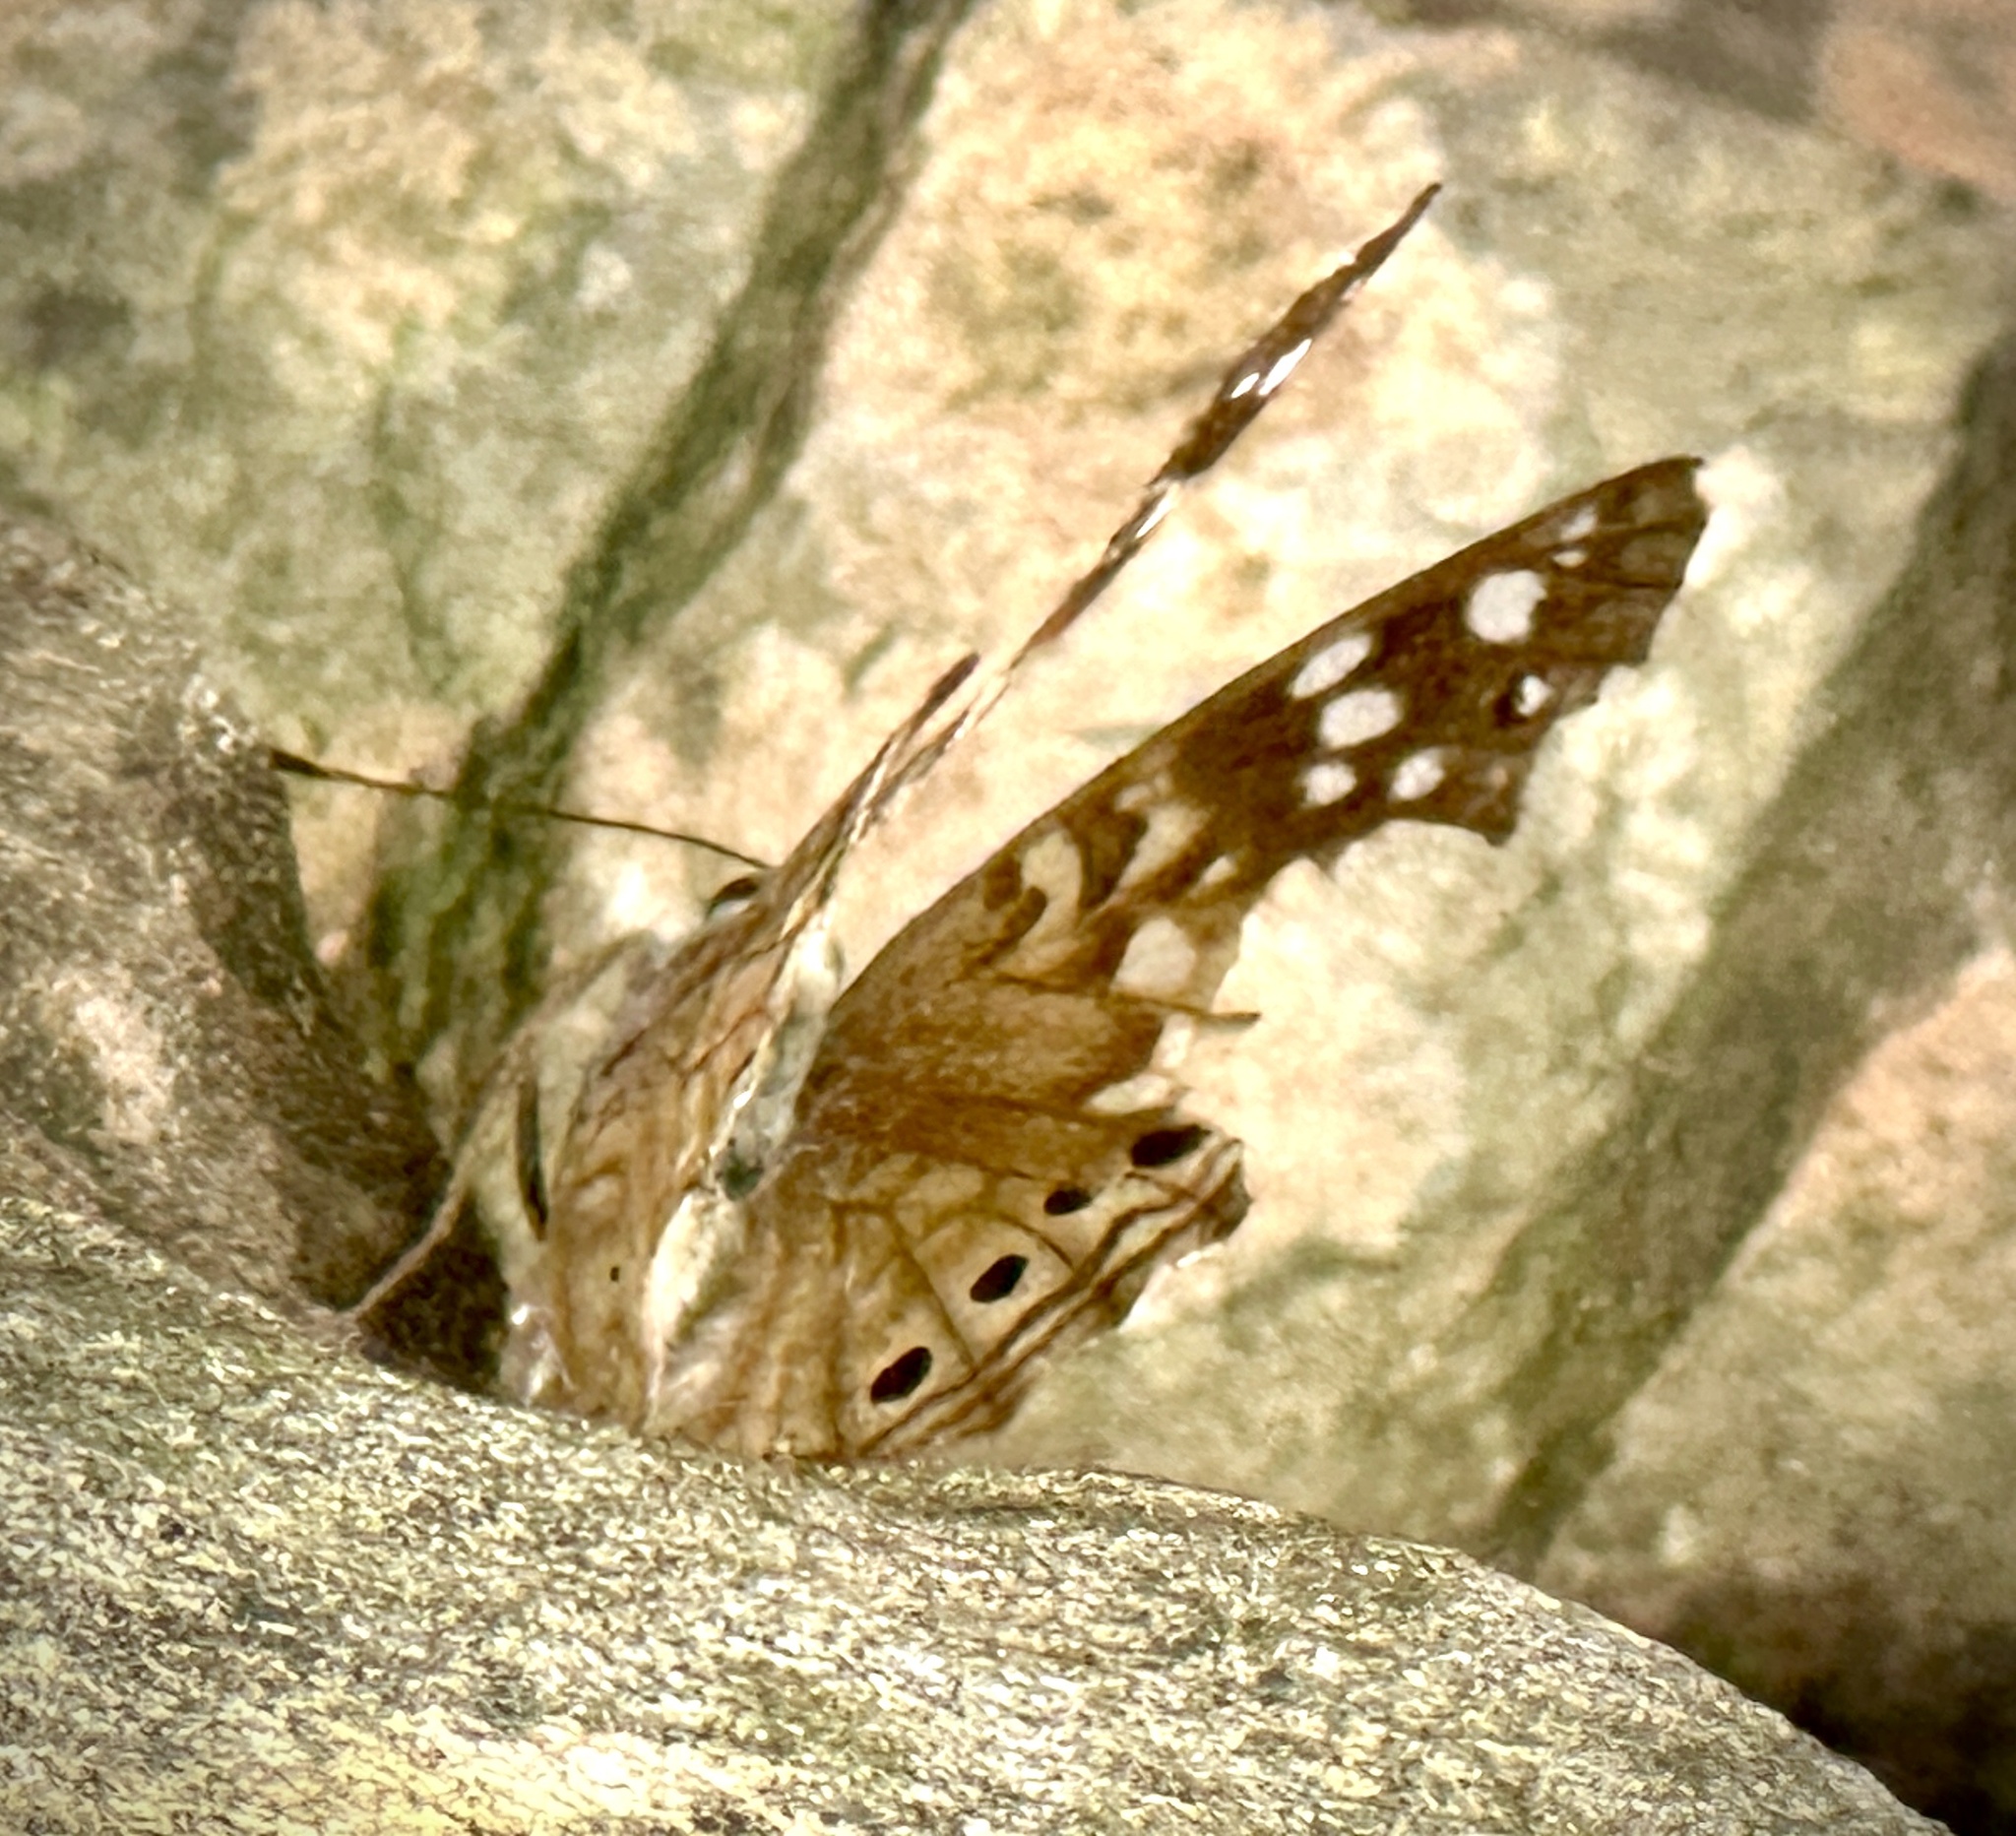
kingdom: Animalia
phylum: Arthropoda
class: Insecta
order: Lepidoptera
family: Nymphalidae
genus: Asterocampa
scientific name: Asterocampa celtis
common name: Hackberry emperor
